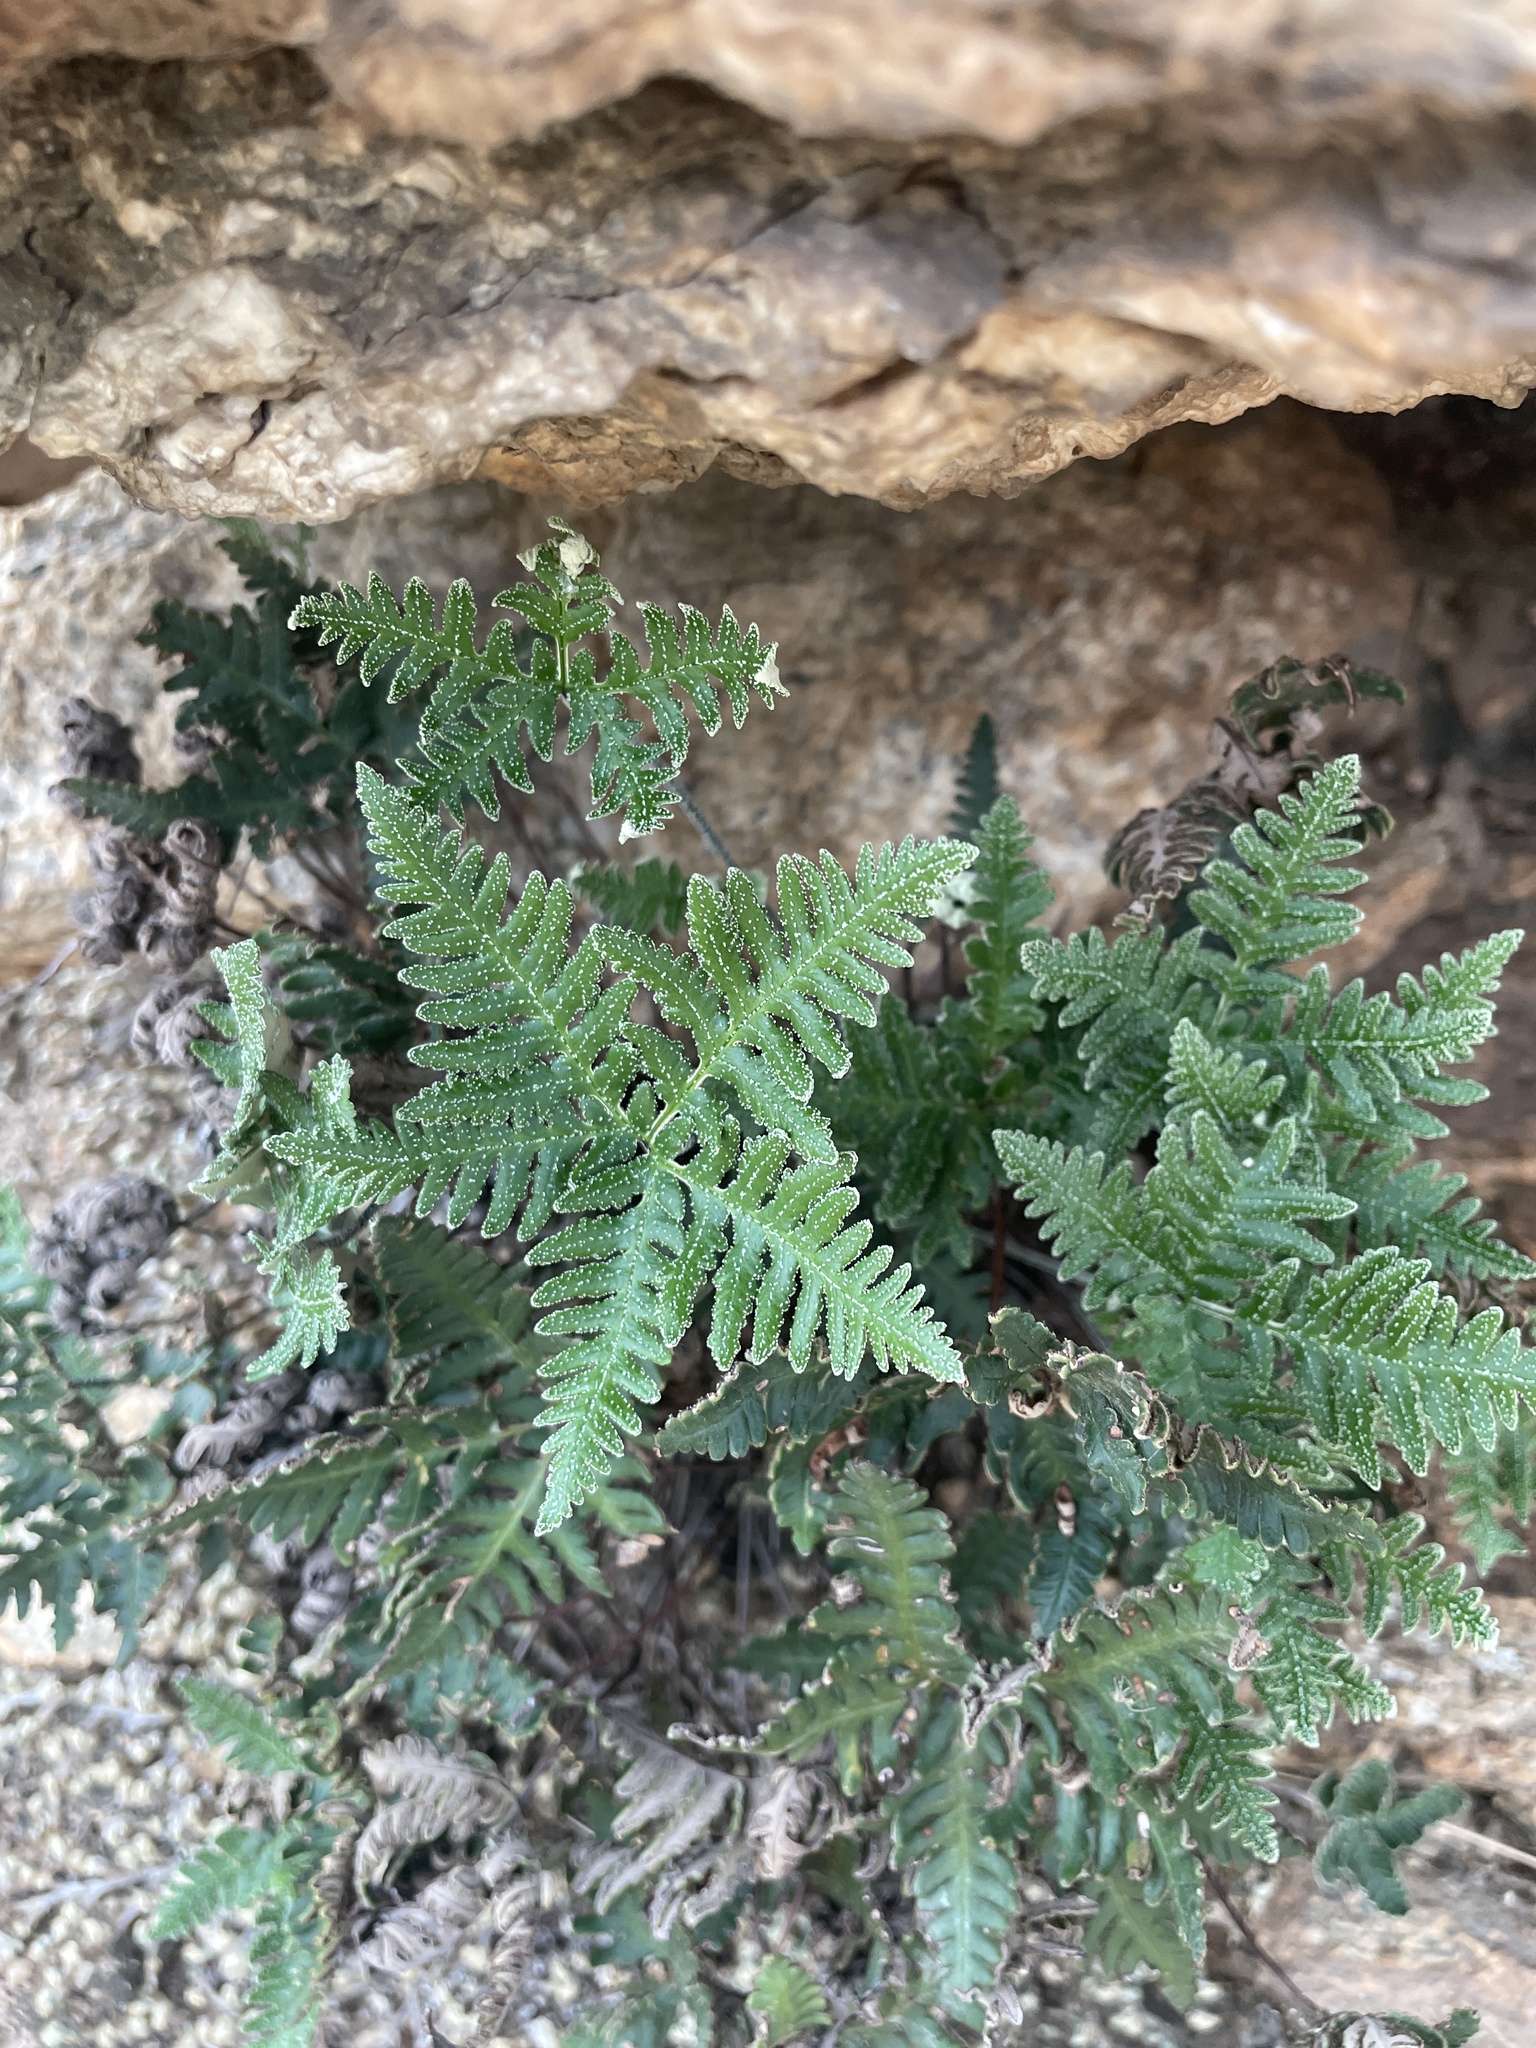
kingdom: Plantae
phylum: Tracheophyta
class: Polypodiopsida
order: Polypodiales
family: Pteridaceae
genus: Notholaena
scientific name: Notholaena standleyi
